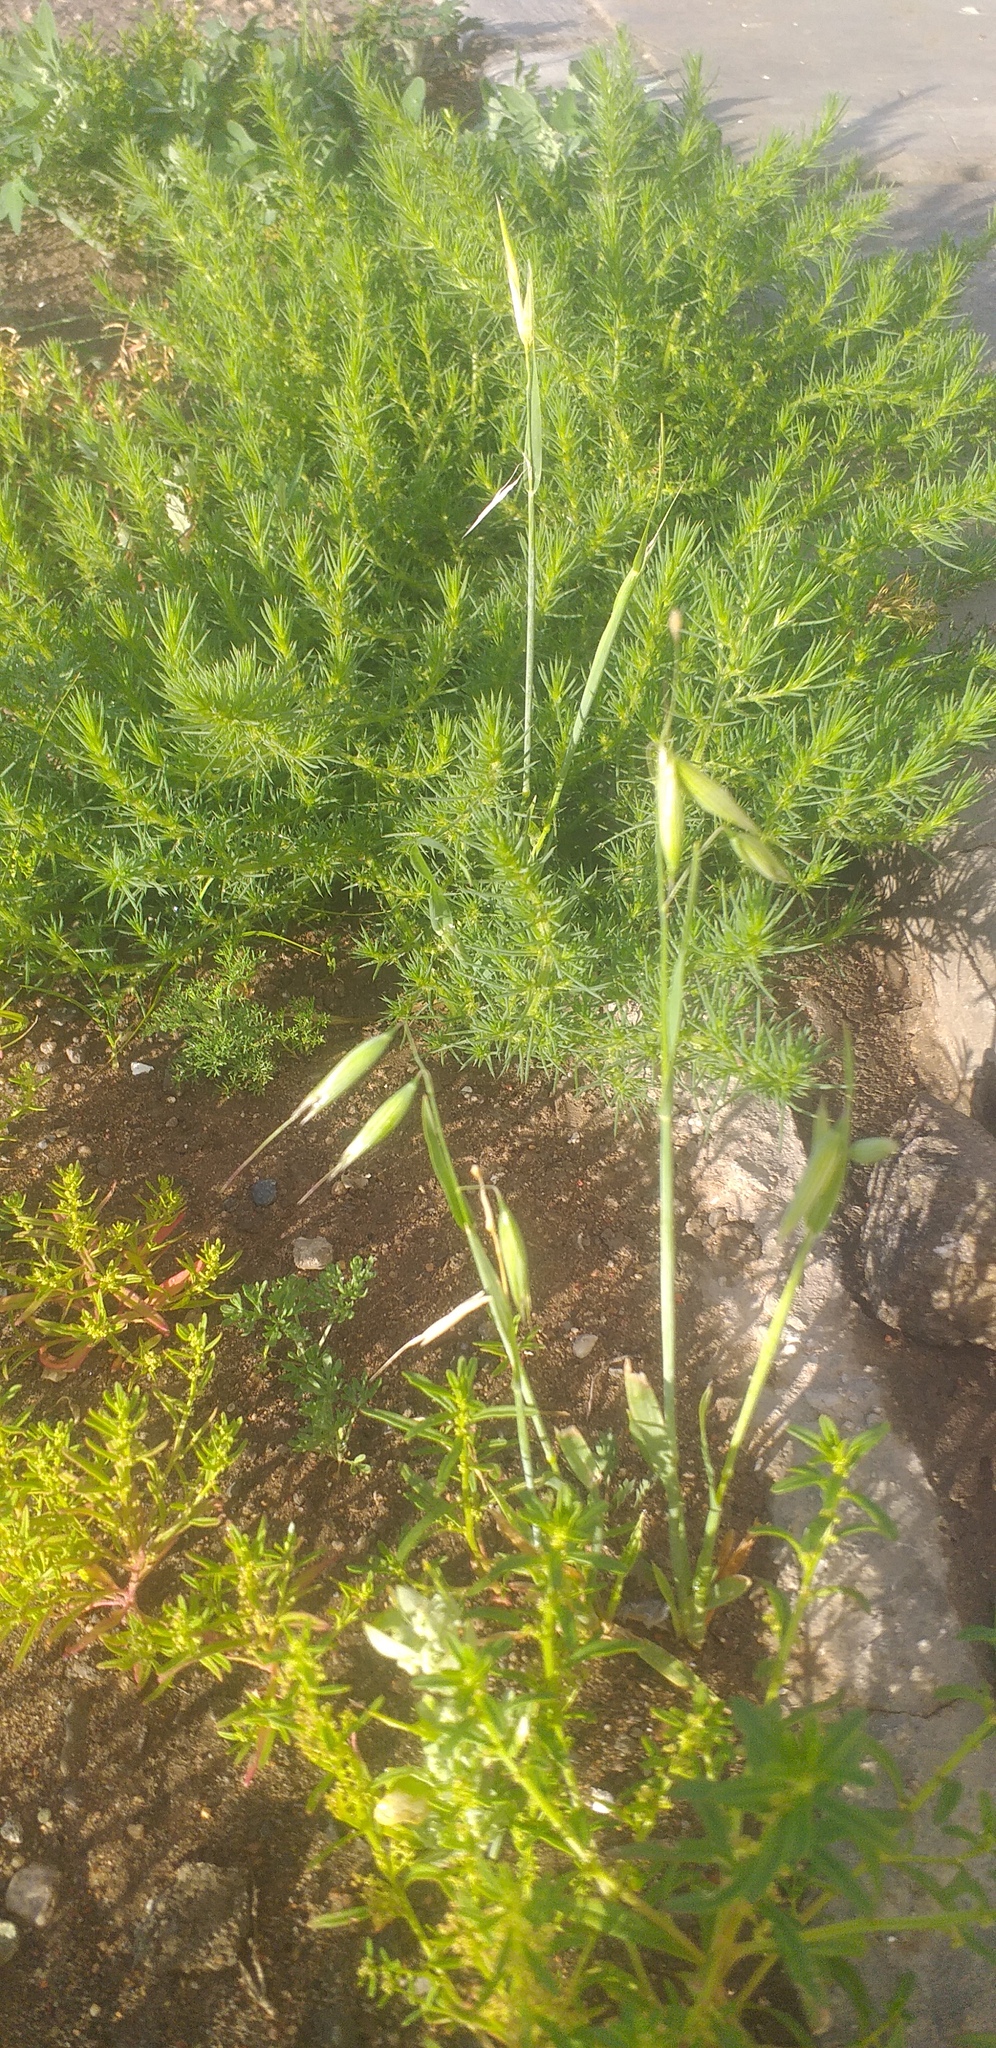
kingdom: Plantae
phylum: Tracheophyta
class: Liliopsida
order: Poales
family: Poaceae
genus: Bromus
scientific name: Bromus inermis
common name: Smooth brome
